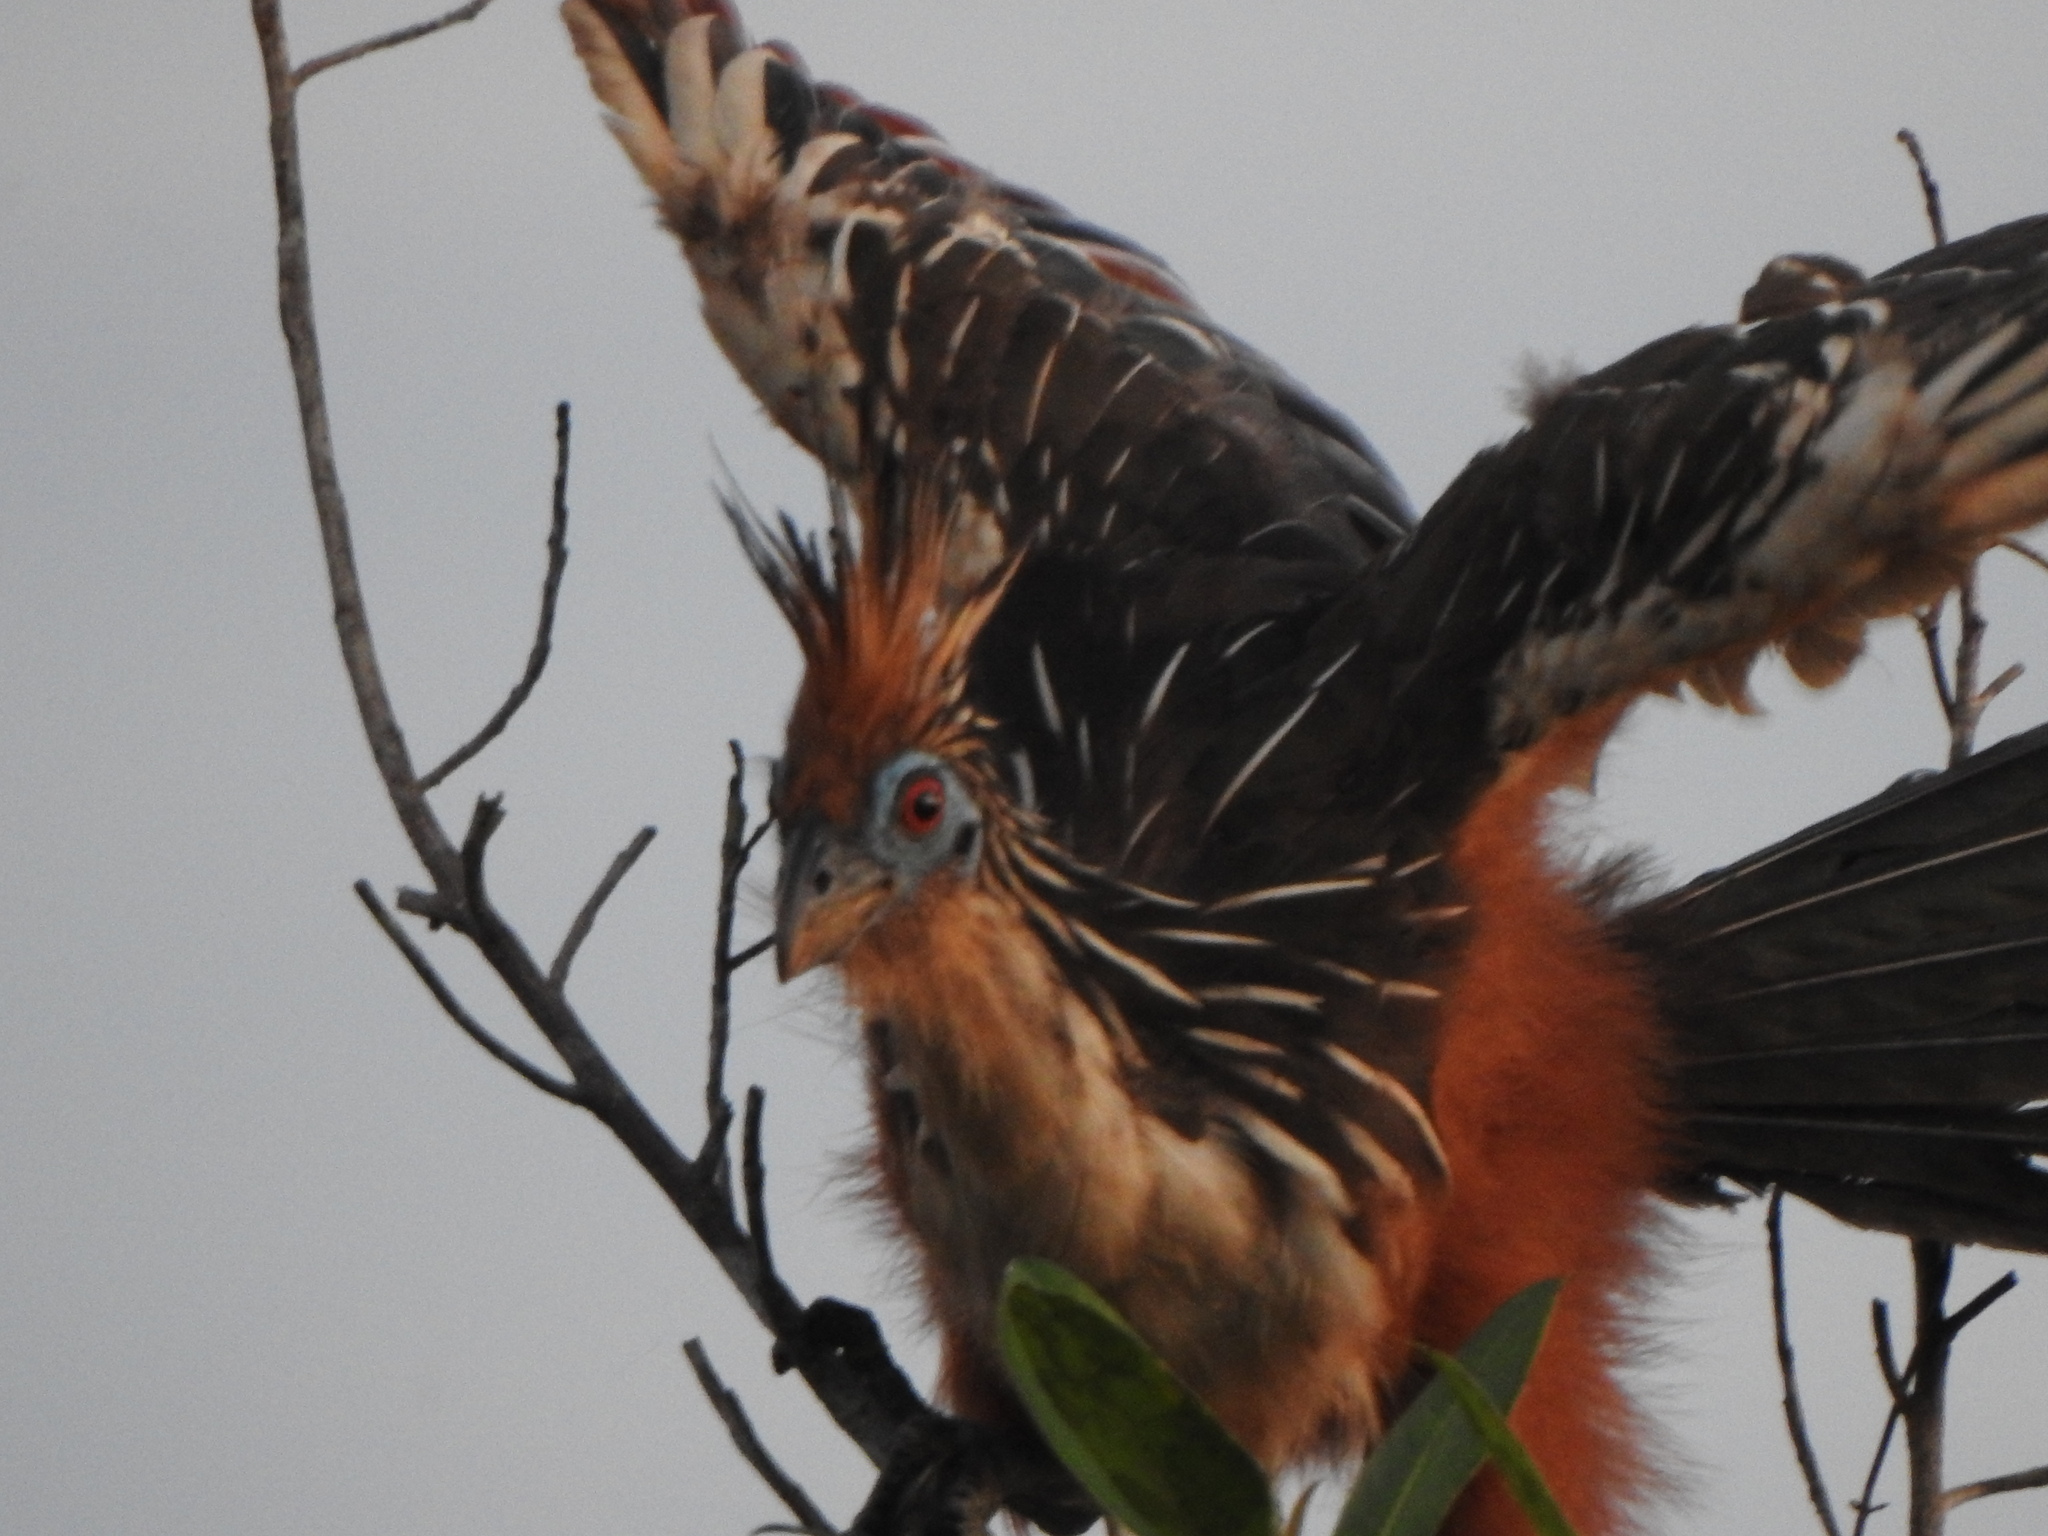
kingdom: Animalia
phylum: Chordata
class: Aves
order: Opisthocomiformes
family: Opisthocomidae
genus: Opisthocomus
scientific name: Opisthocomus hoazin
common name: Hoatzin
